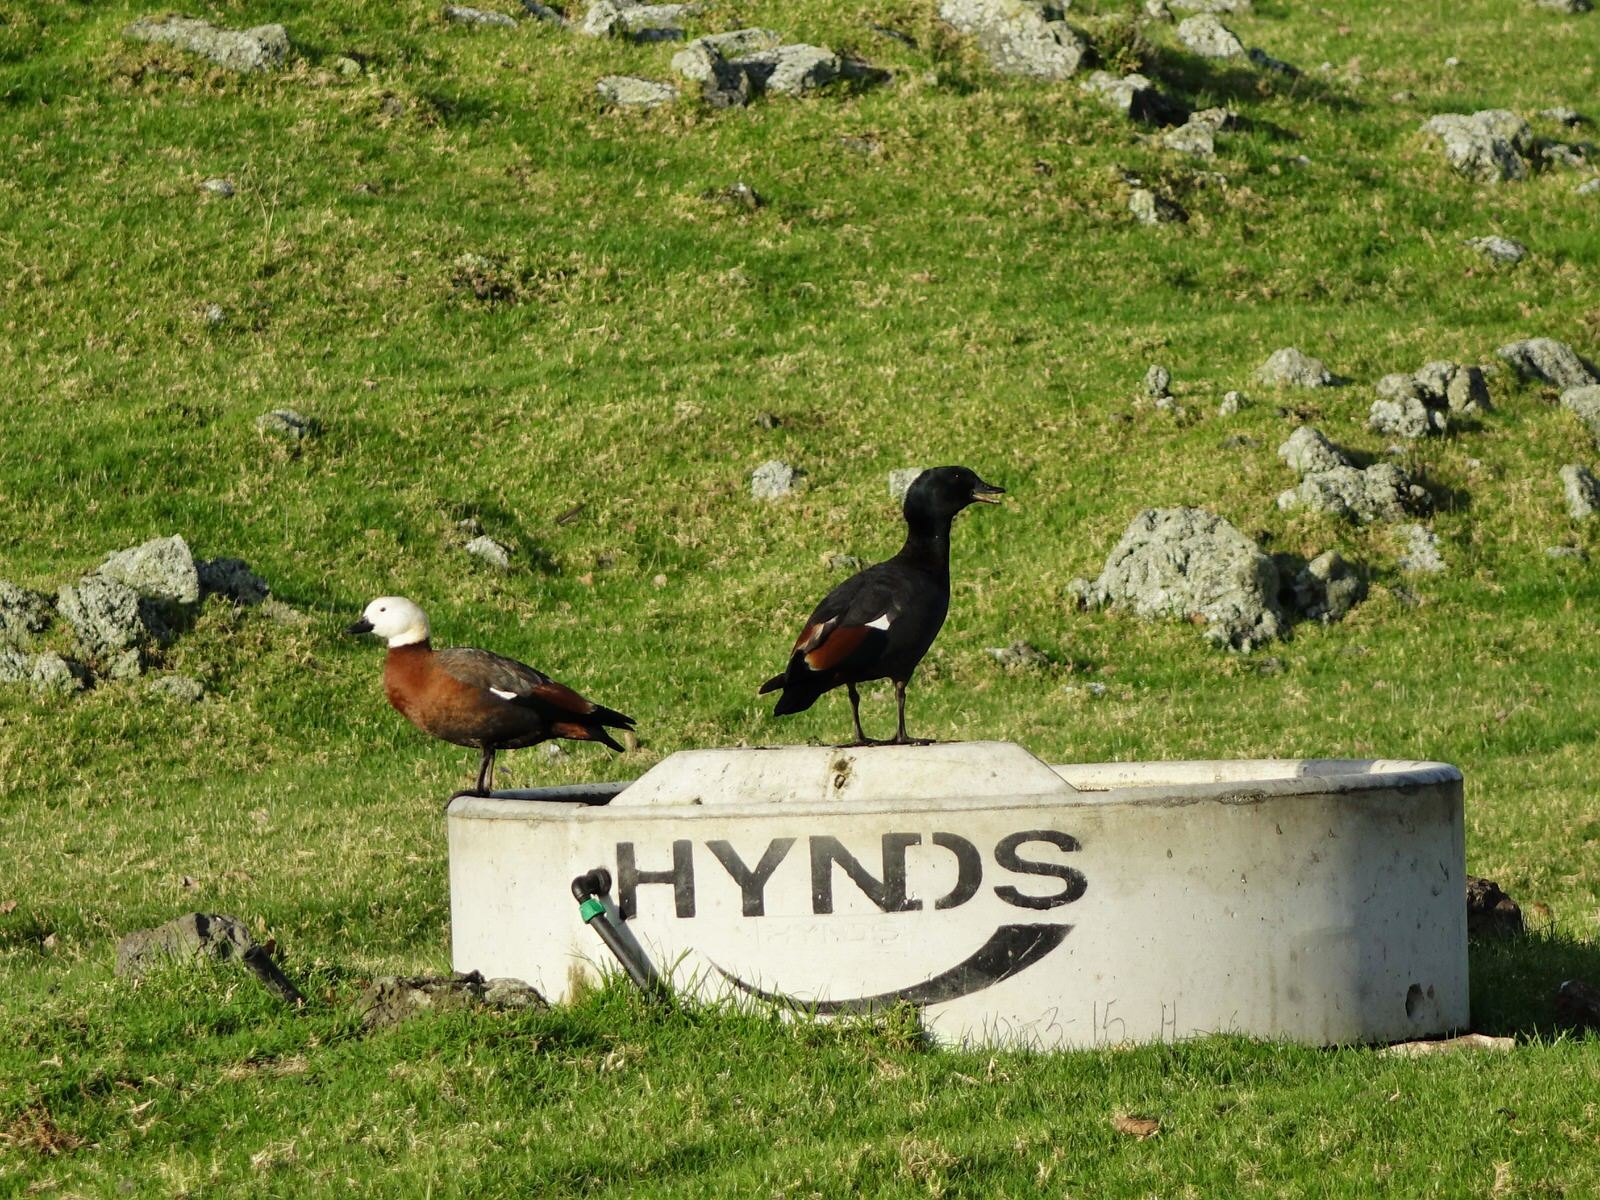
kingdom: Animalia
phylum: Chordata
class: Aves
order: Anseriformes
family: Anatidae
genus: Tadorna
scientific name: Tadorna variegata
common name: Paradise shelduck
